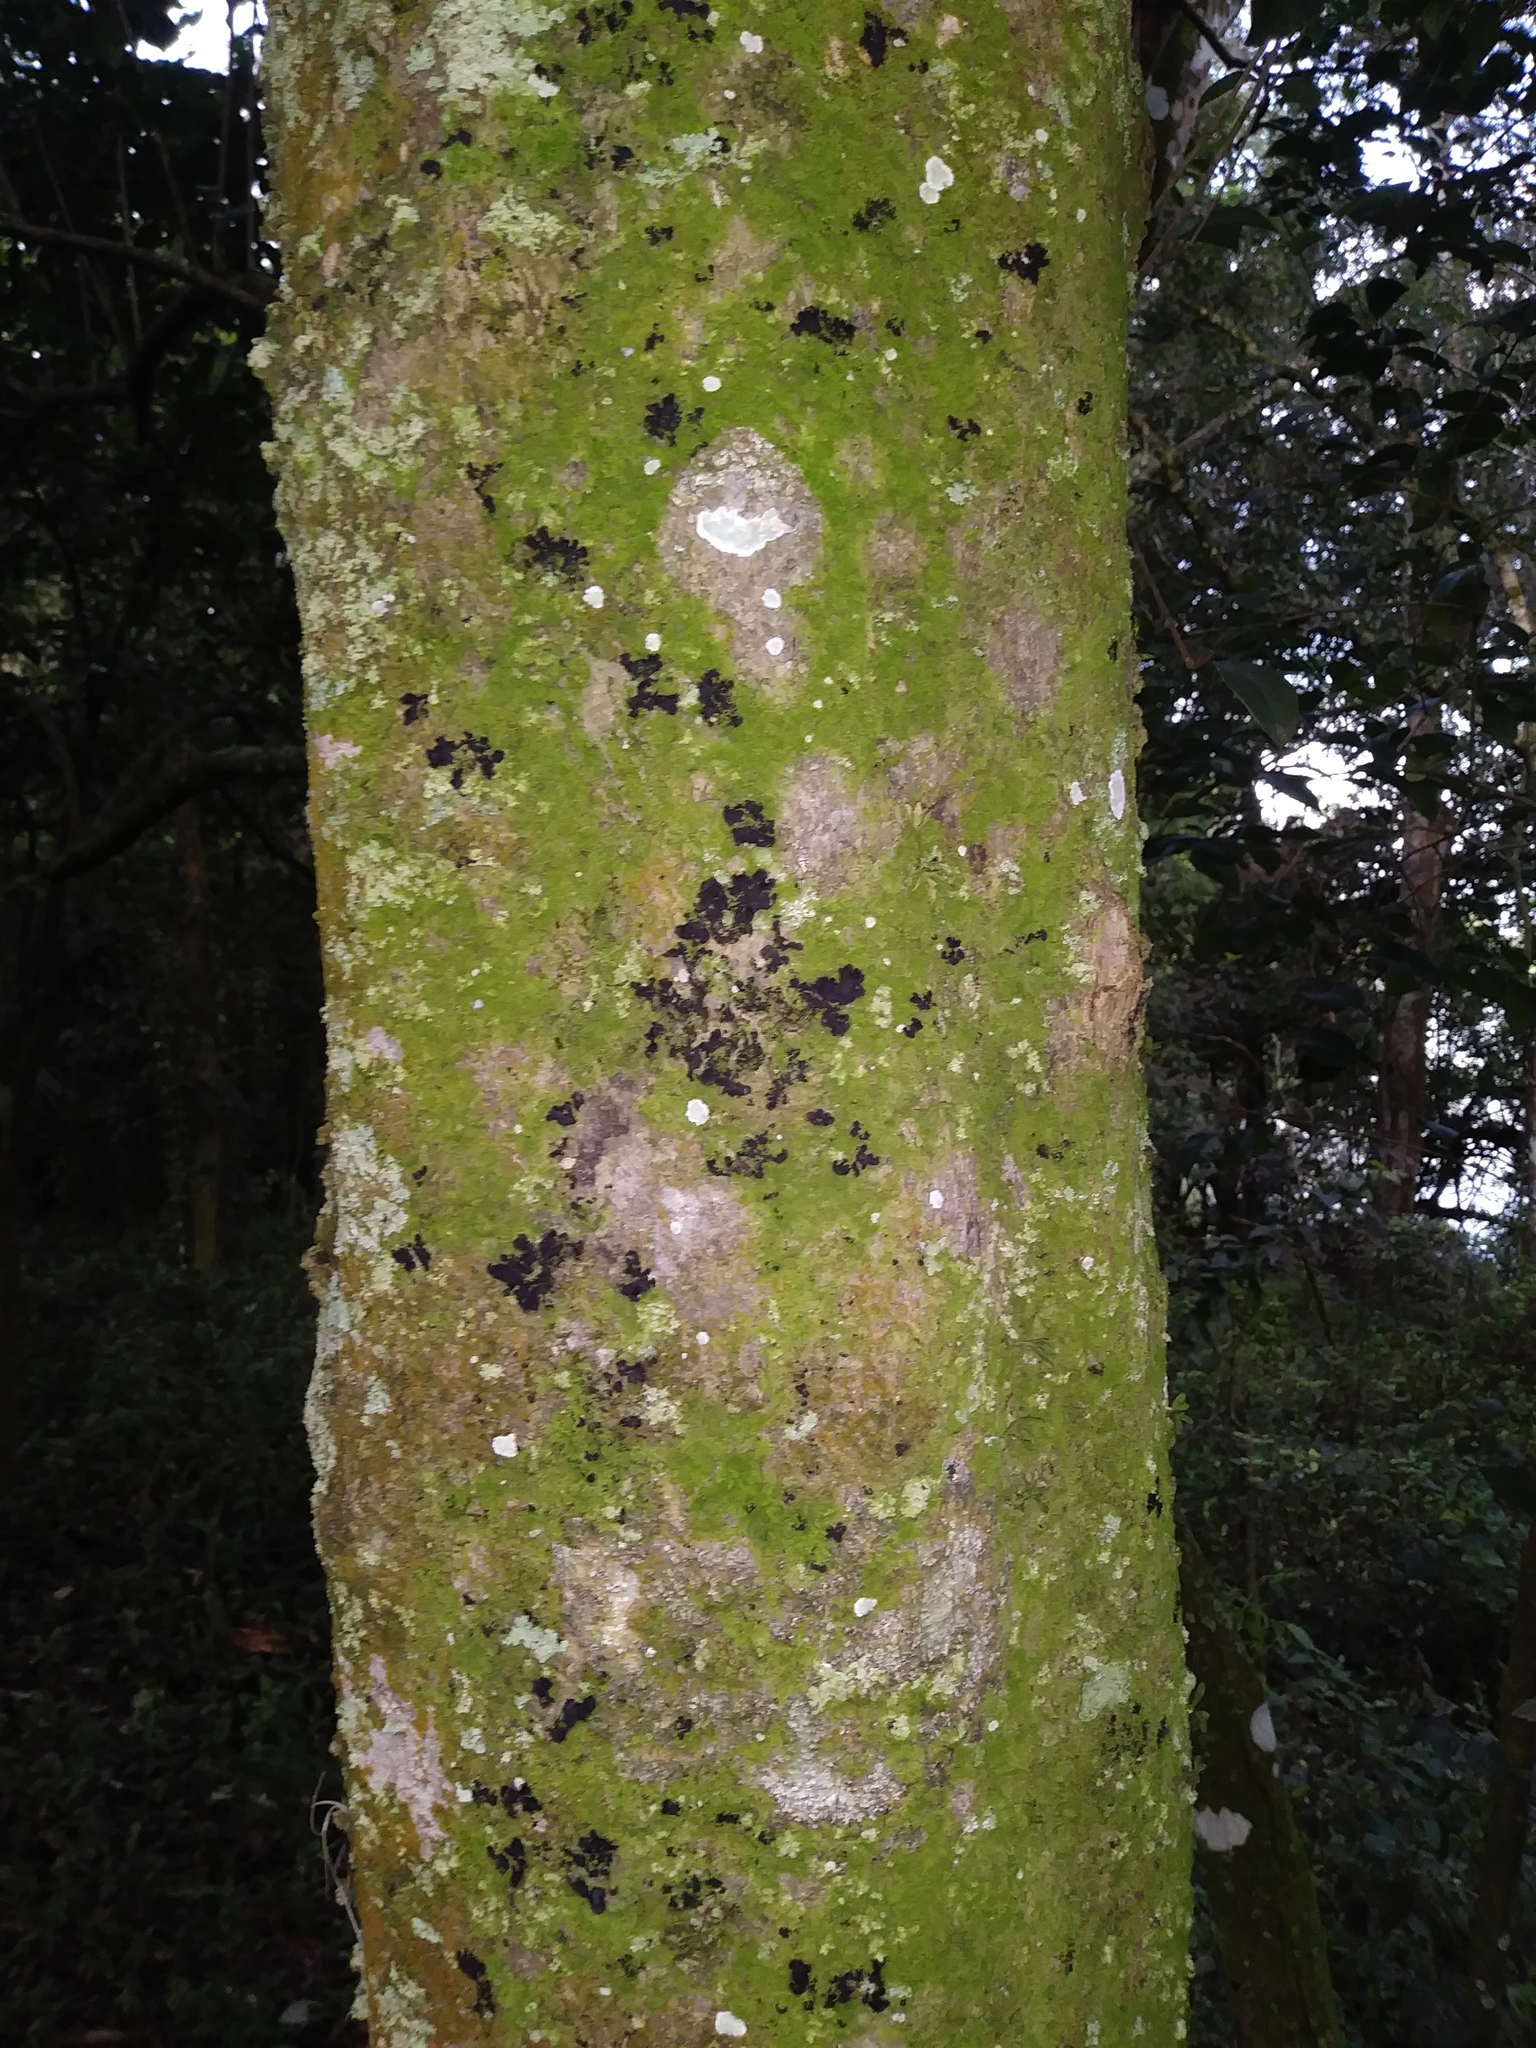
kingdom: Plantae
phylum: Tracheophyta
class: Magnoliopsida
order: Rosales
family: Cannabaceae
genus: Celtis
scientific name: Celtis laevigata
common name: Sugarberry
